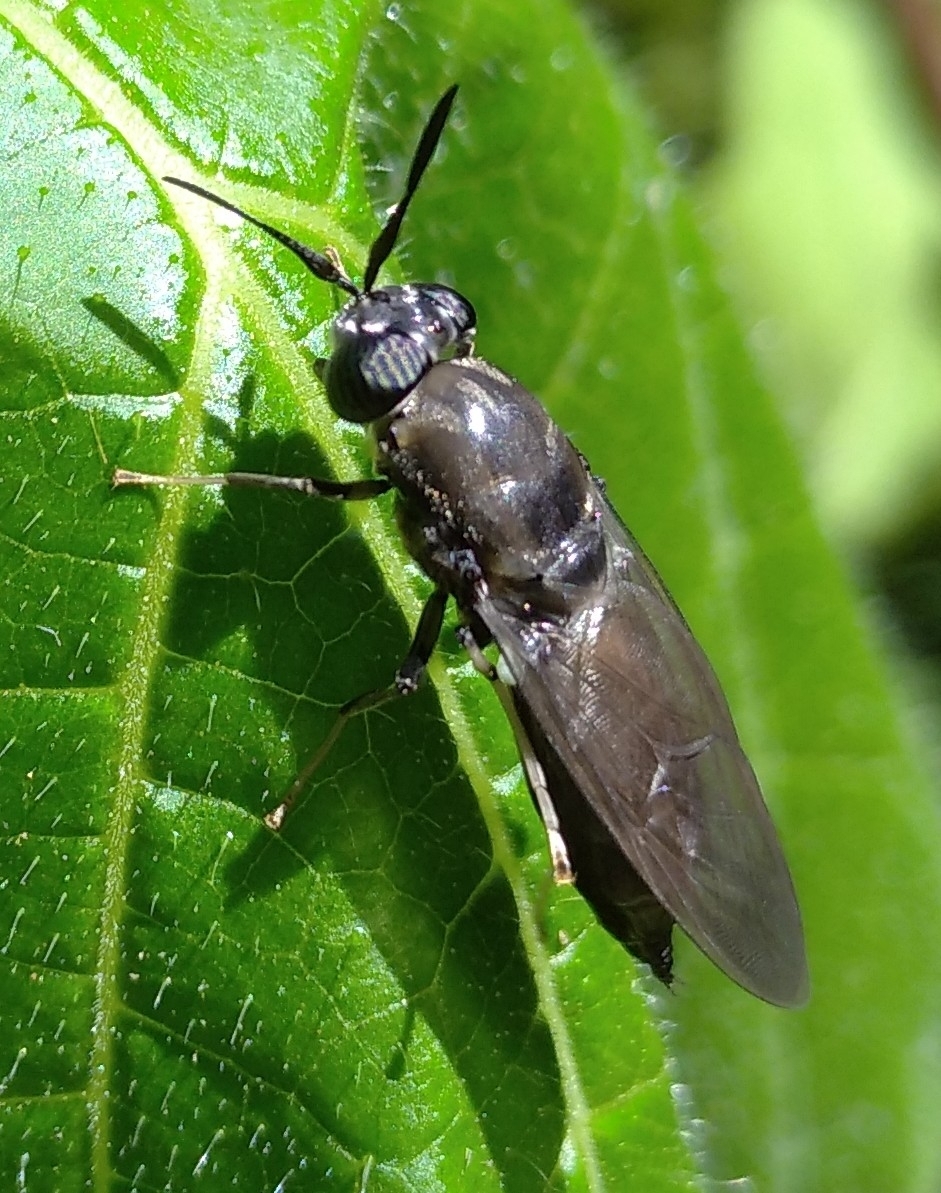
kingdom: Animalia
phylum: Arthropoda
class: Insecta
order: Diptera
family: Stratiomyidae
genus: Hermetia
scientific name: Hermetia illucens
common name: Black soldier fly
